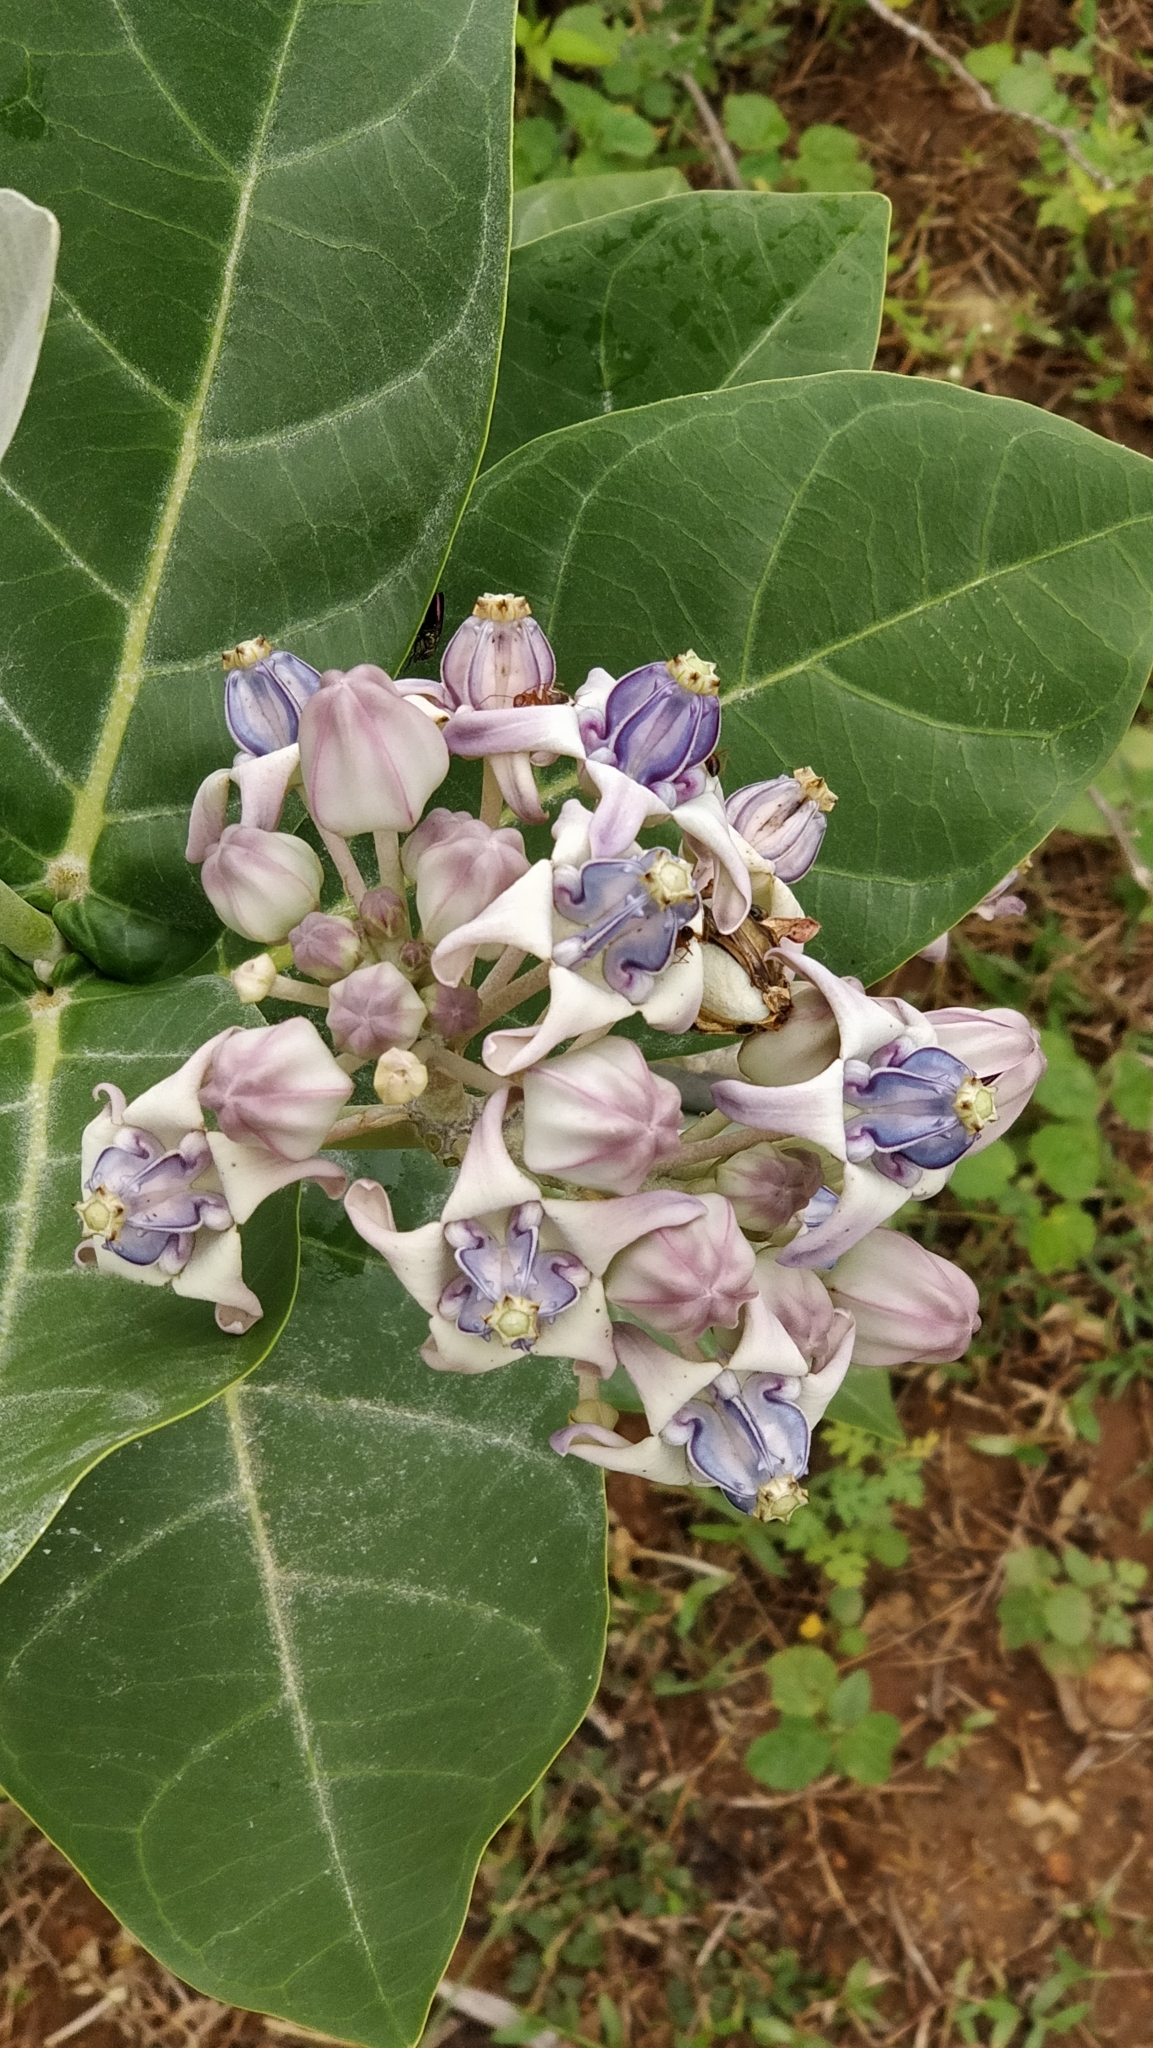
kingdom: Plantae
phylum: Tracheophyta
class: Magnoliopsida
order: Gentianales
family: Apocynaceae
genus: Calotropis
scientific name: Calotropis gigantea
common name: Crown flower
